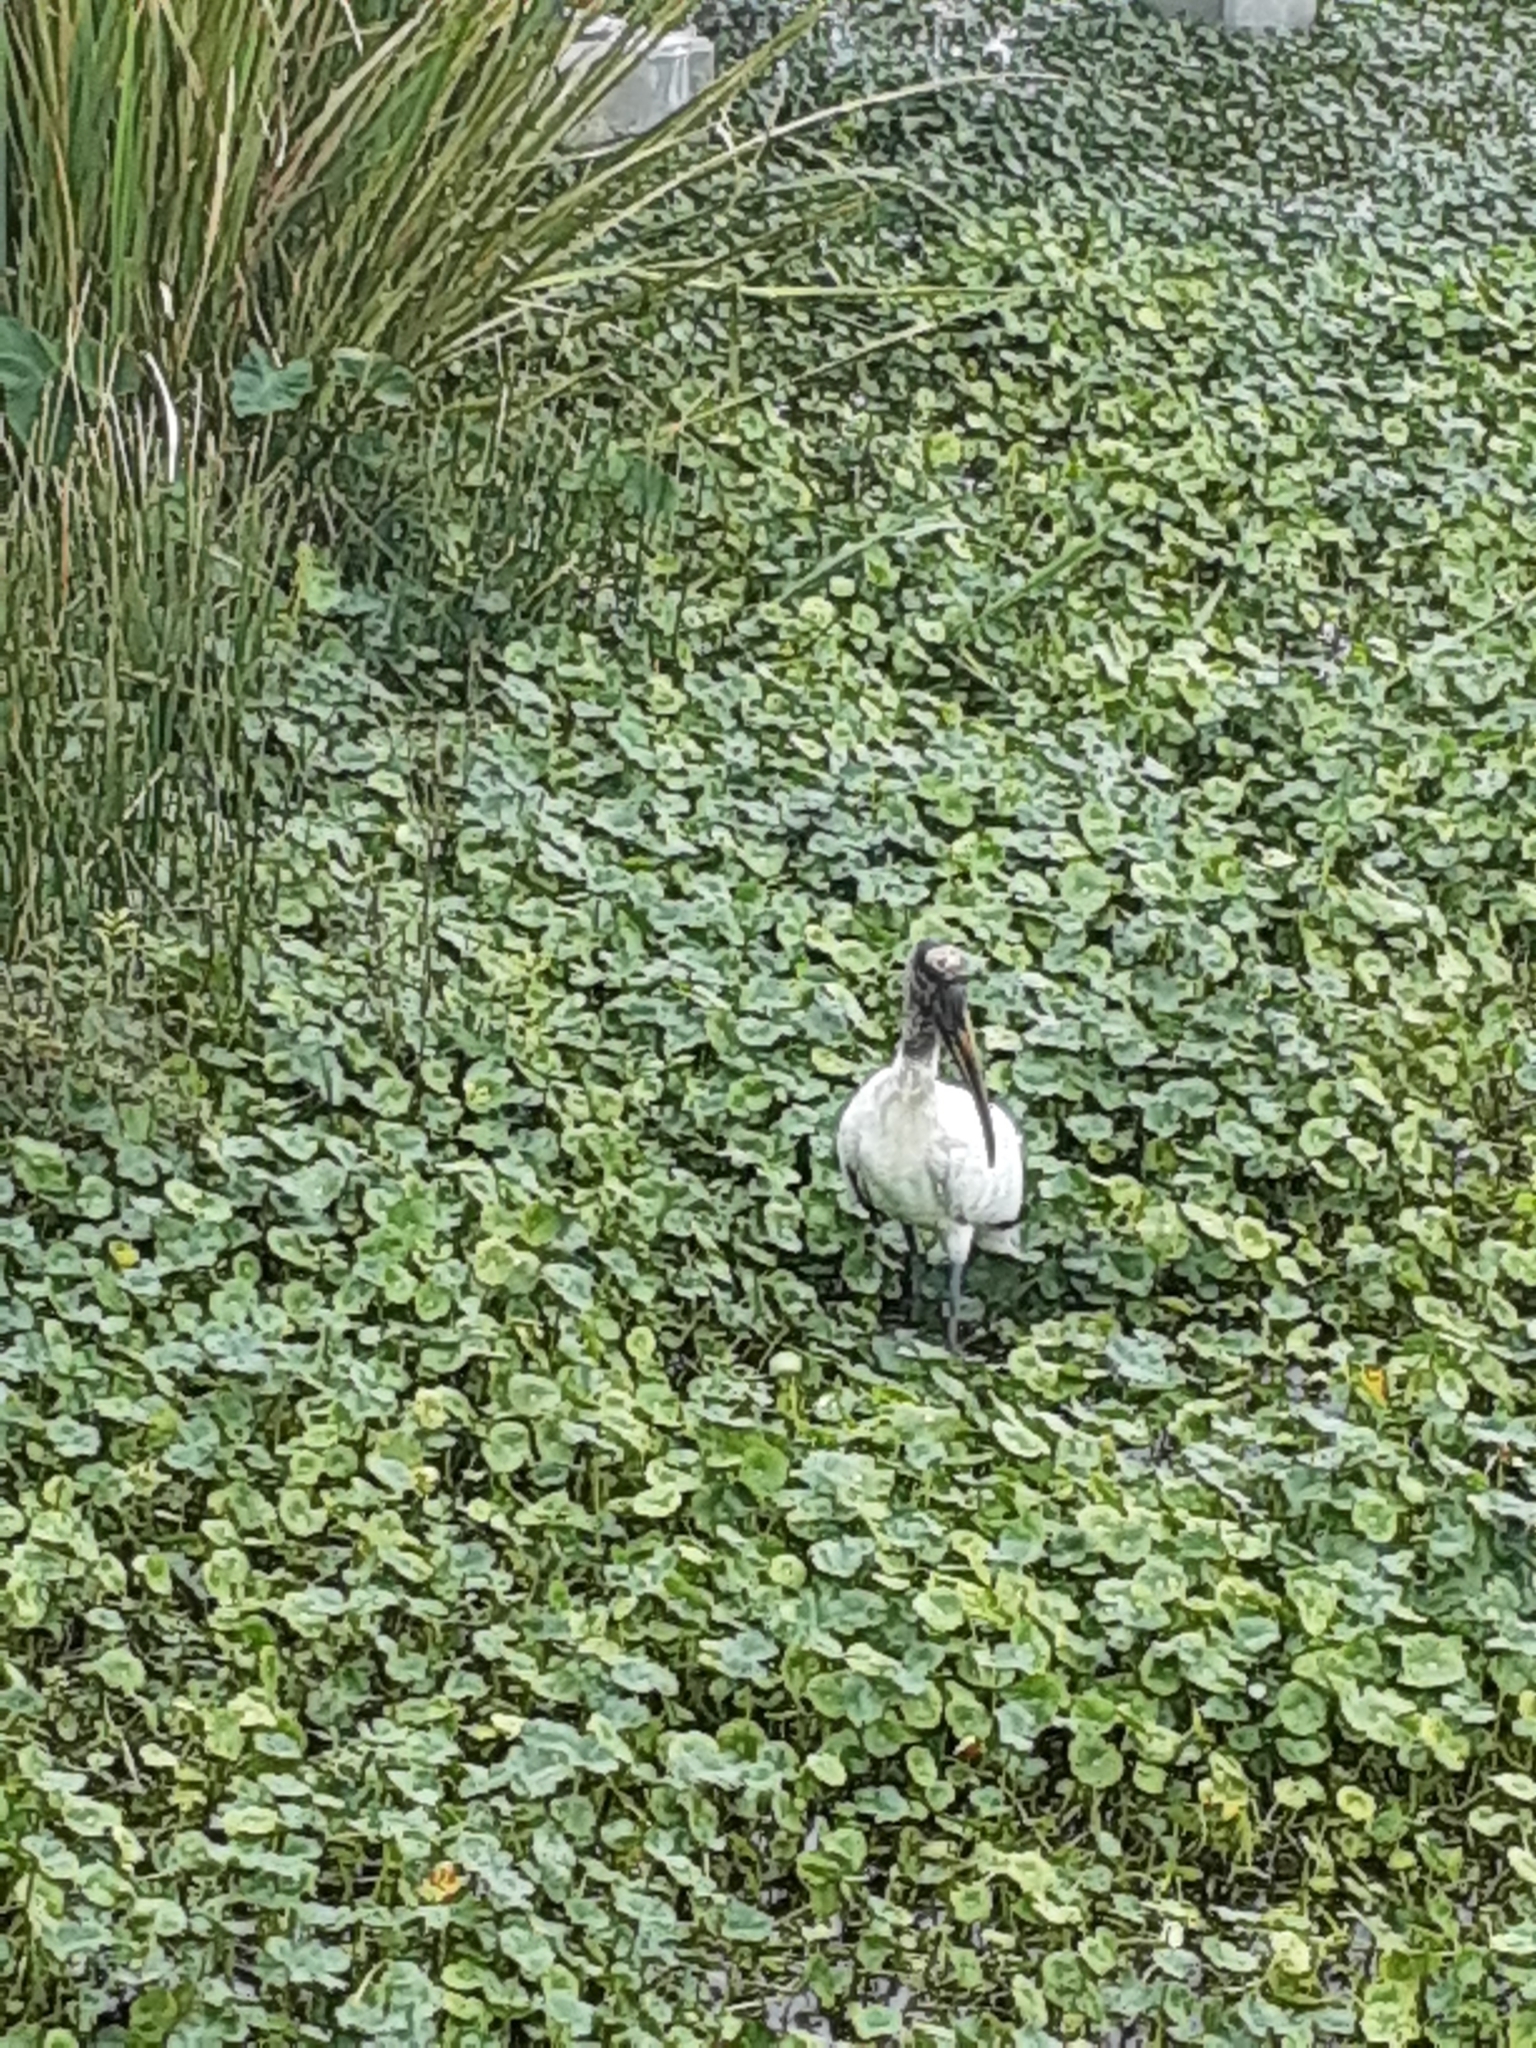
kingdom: Animalia
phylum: Chordata
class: Aves
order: Ciconiiformes
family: Ciconiidae
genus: Mycteria
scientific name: Mycteria americana
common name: Wood stork
